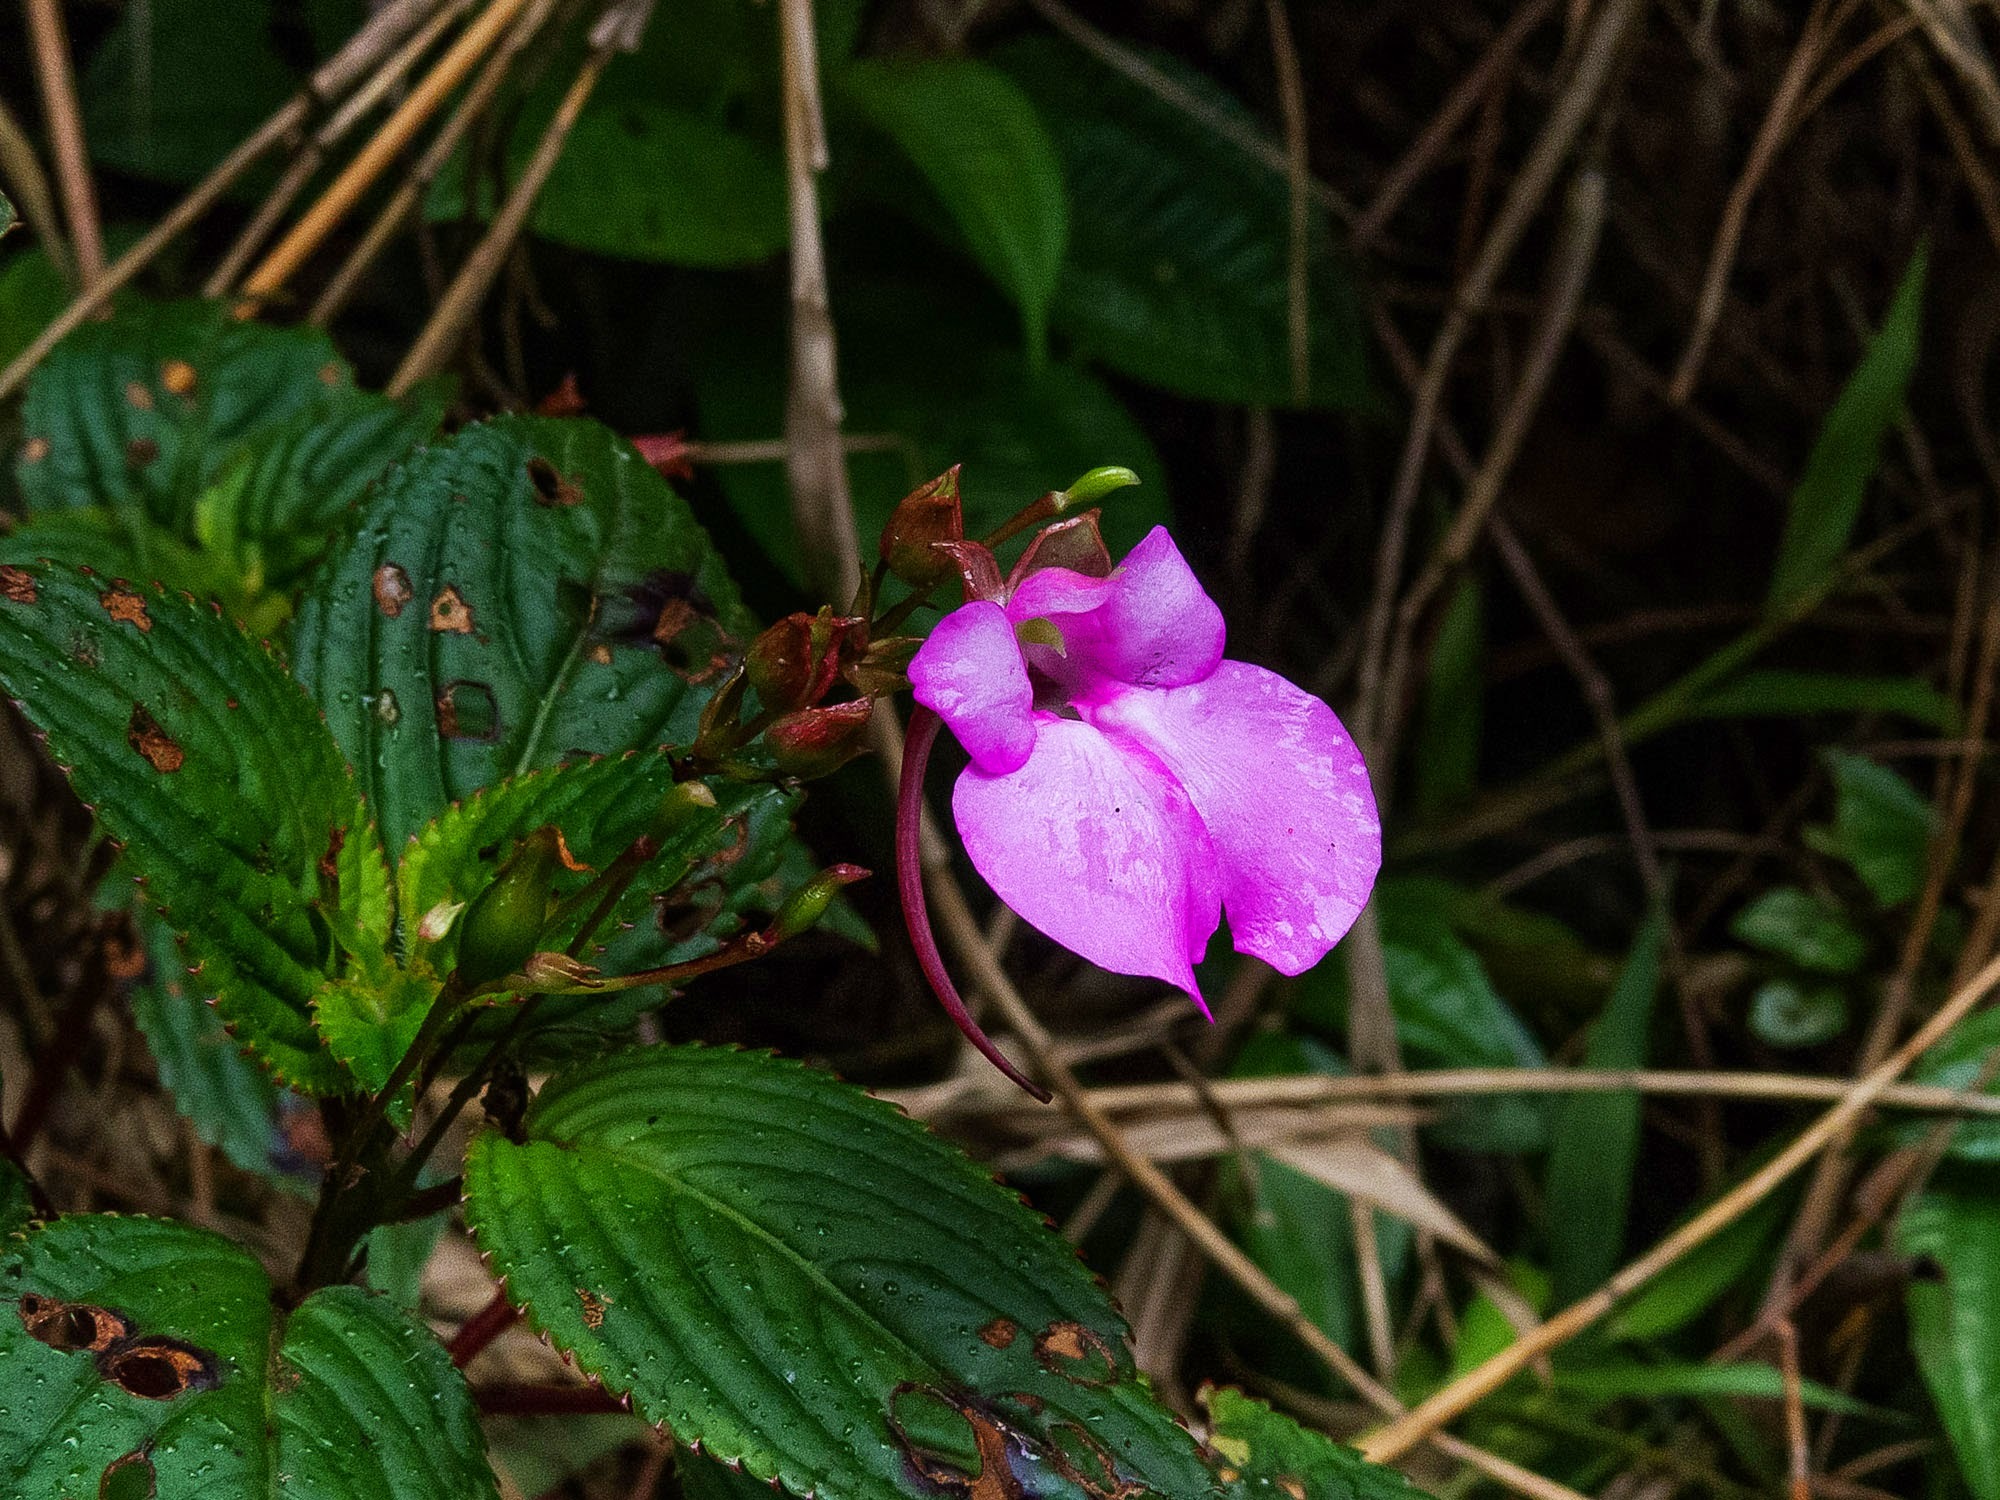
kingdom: Plantae
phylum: Tracheophyta
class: Magnoliopsida
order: Ericales
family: Balsaminaceae
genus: Impatiens
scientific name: Impatiens viscida
